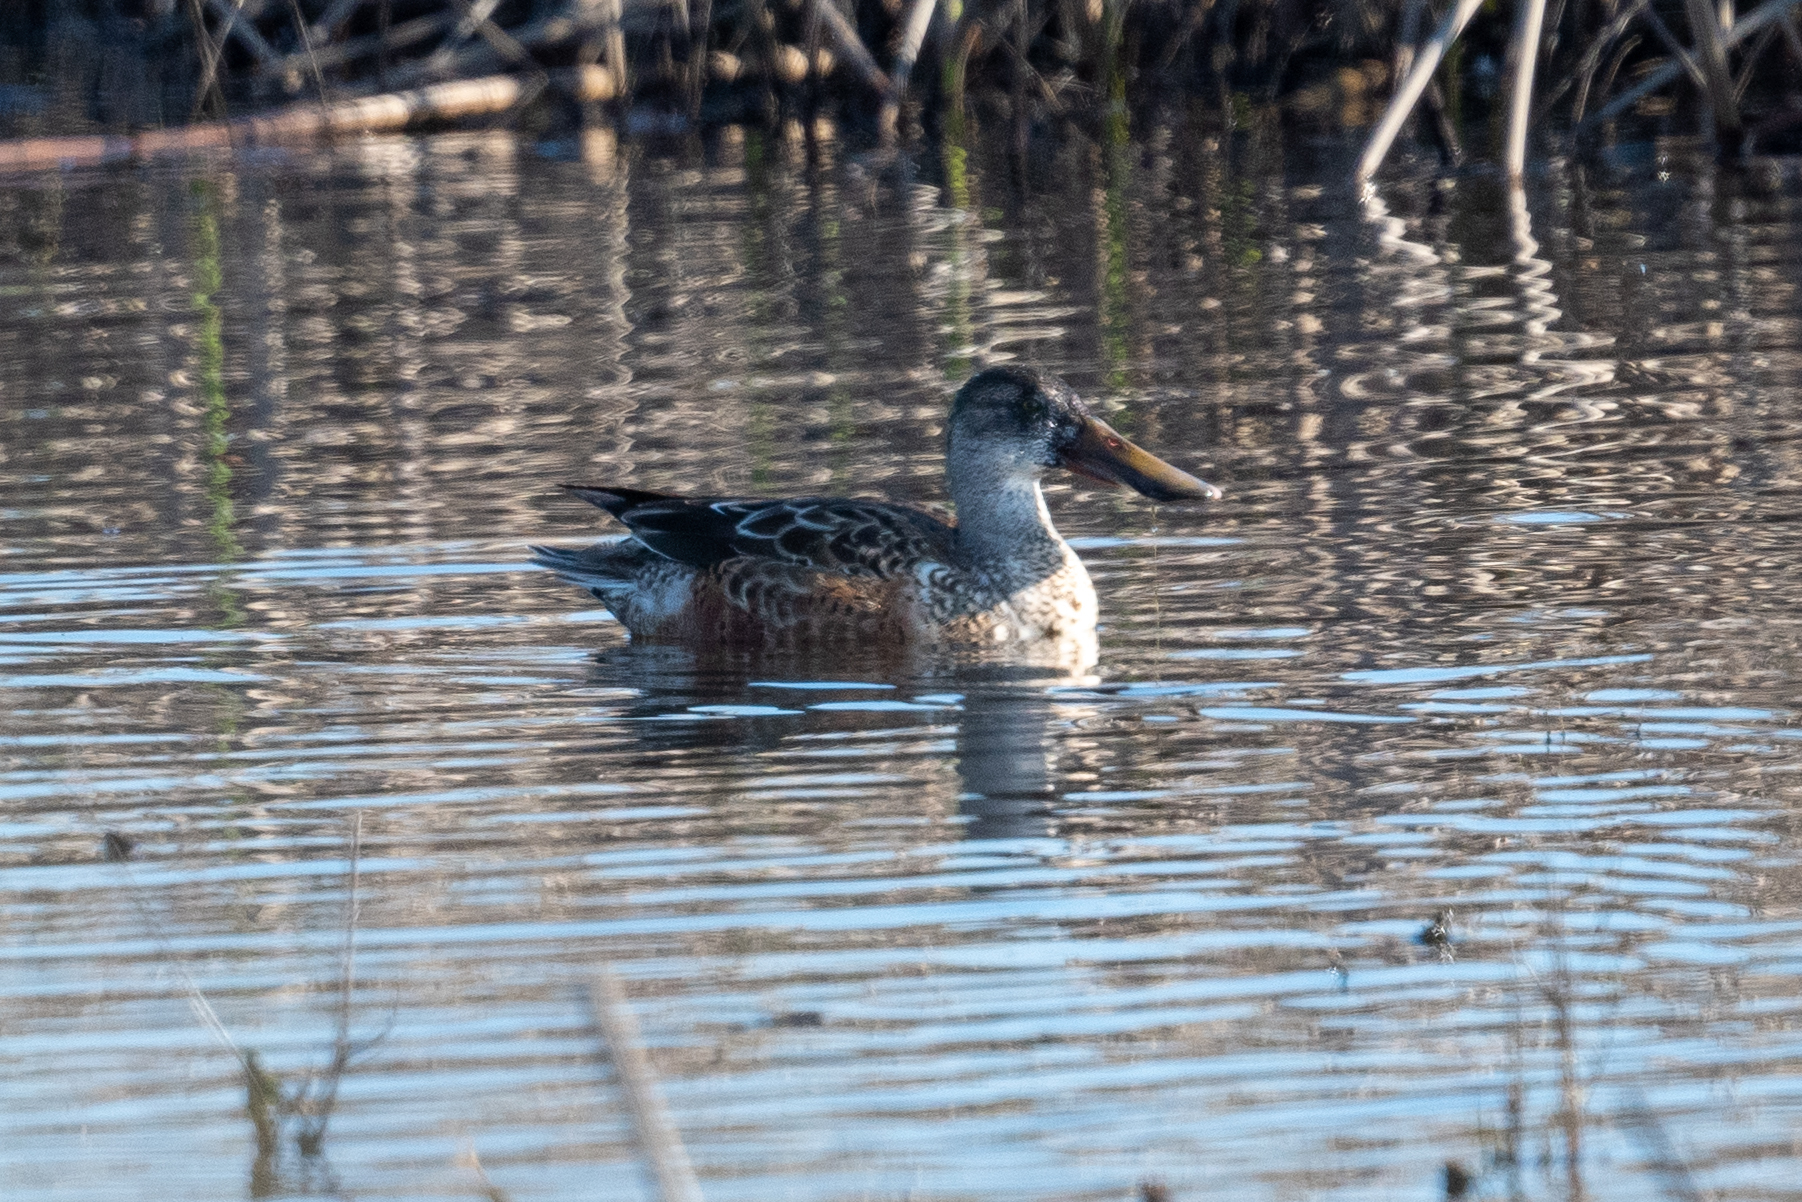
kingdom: Animalia
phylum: Chordata
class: Aves
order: Anseriformes
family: Anatidae
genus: Spatula
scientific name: Spatula clypeata
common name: Northern shoveler
